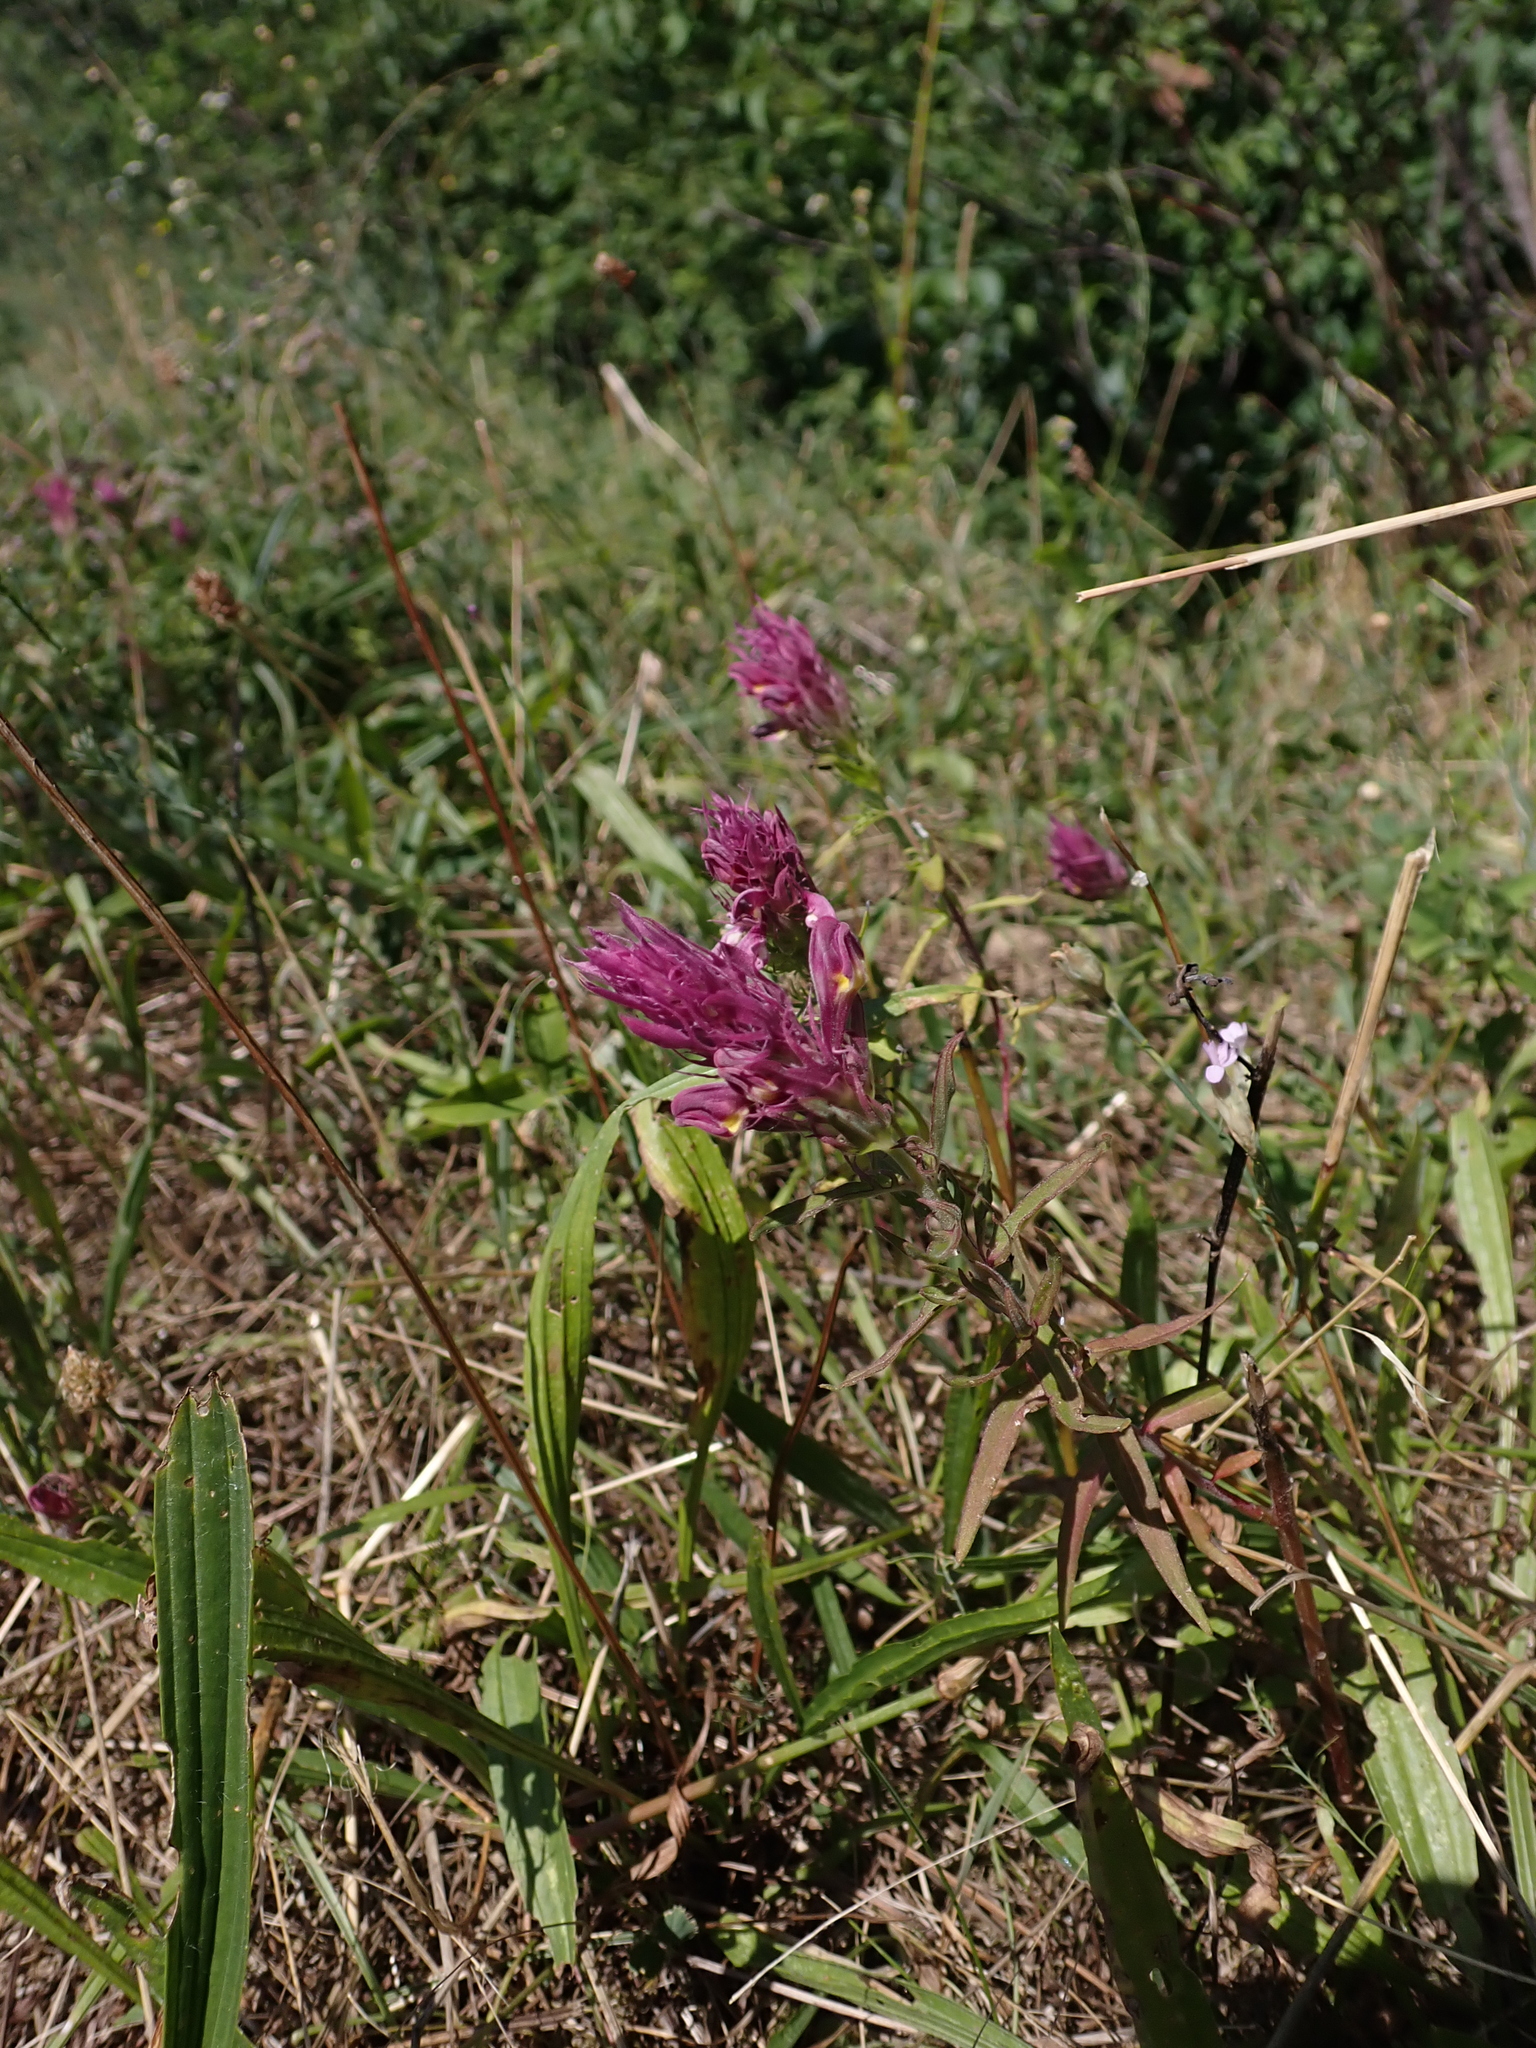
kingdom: Plantae
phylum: Tracheophyta
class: Magnoliopsida
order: Lamiales
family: Orobanchaceae
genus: Melampyrum
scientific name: Melampyrum arvense
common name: Field cow-wheat
